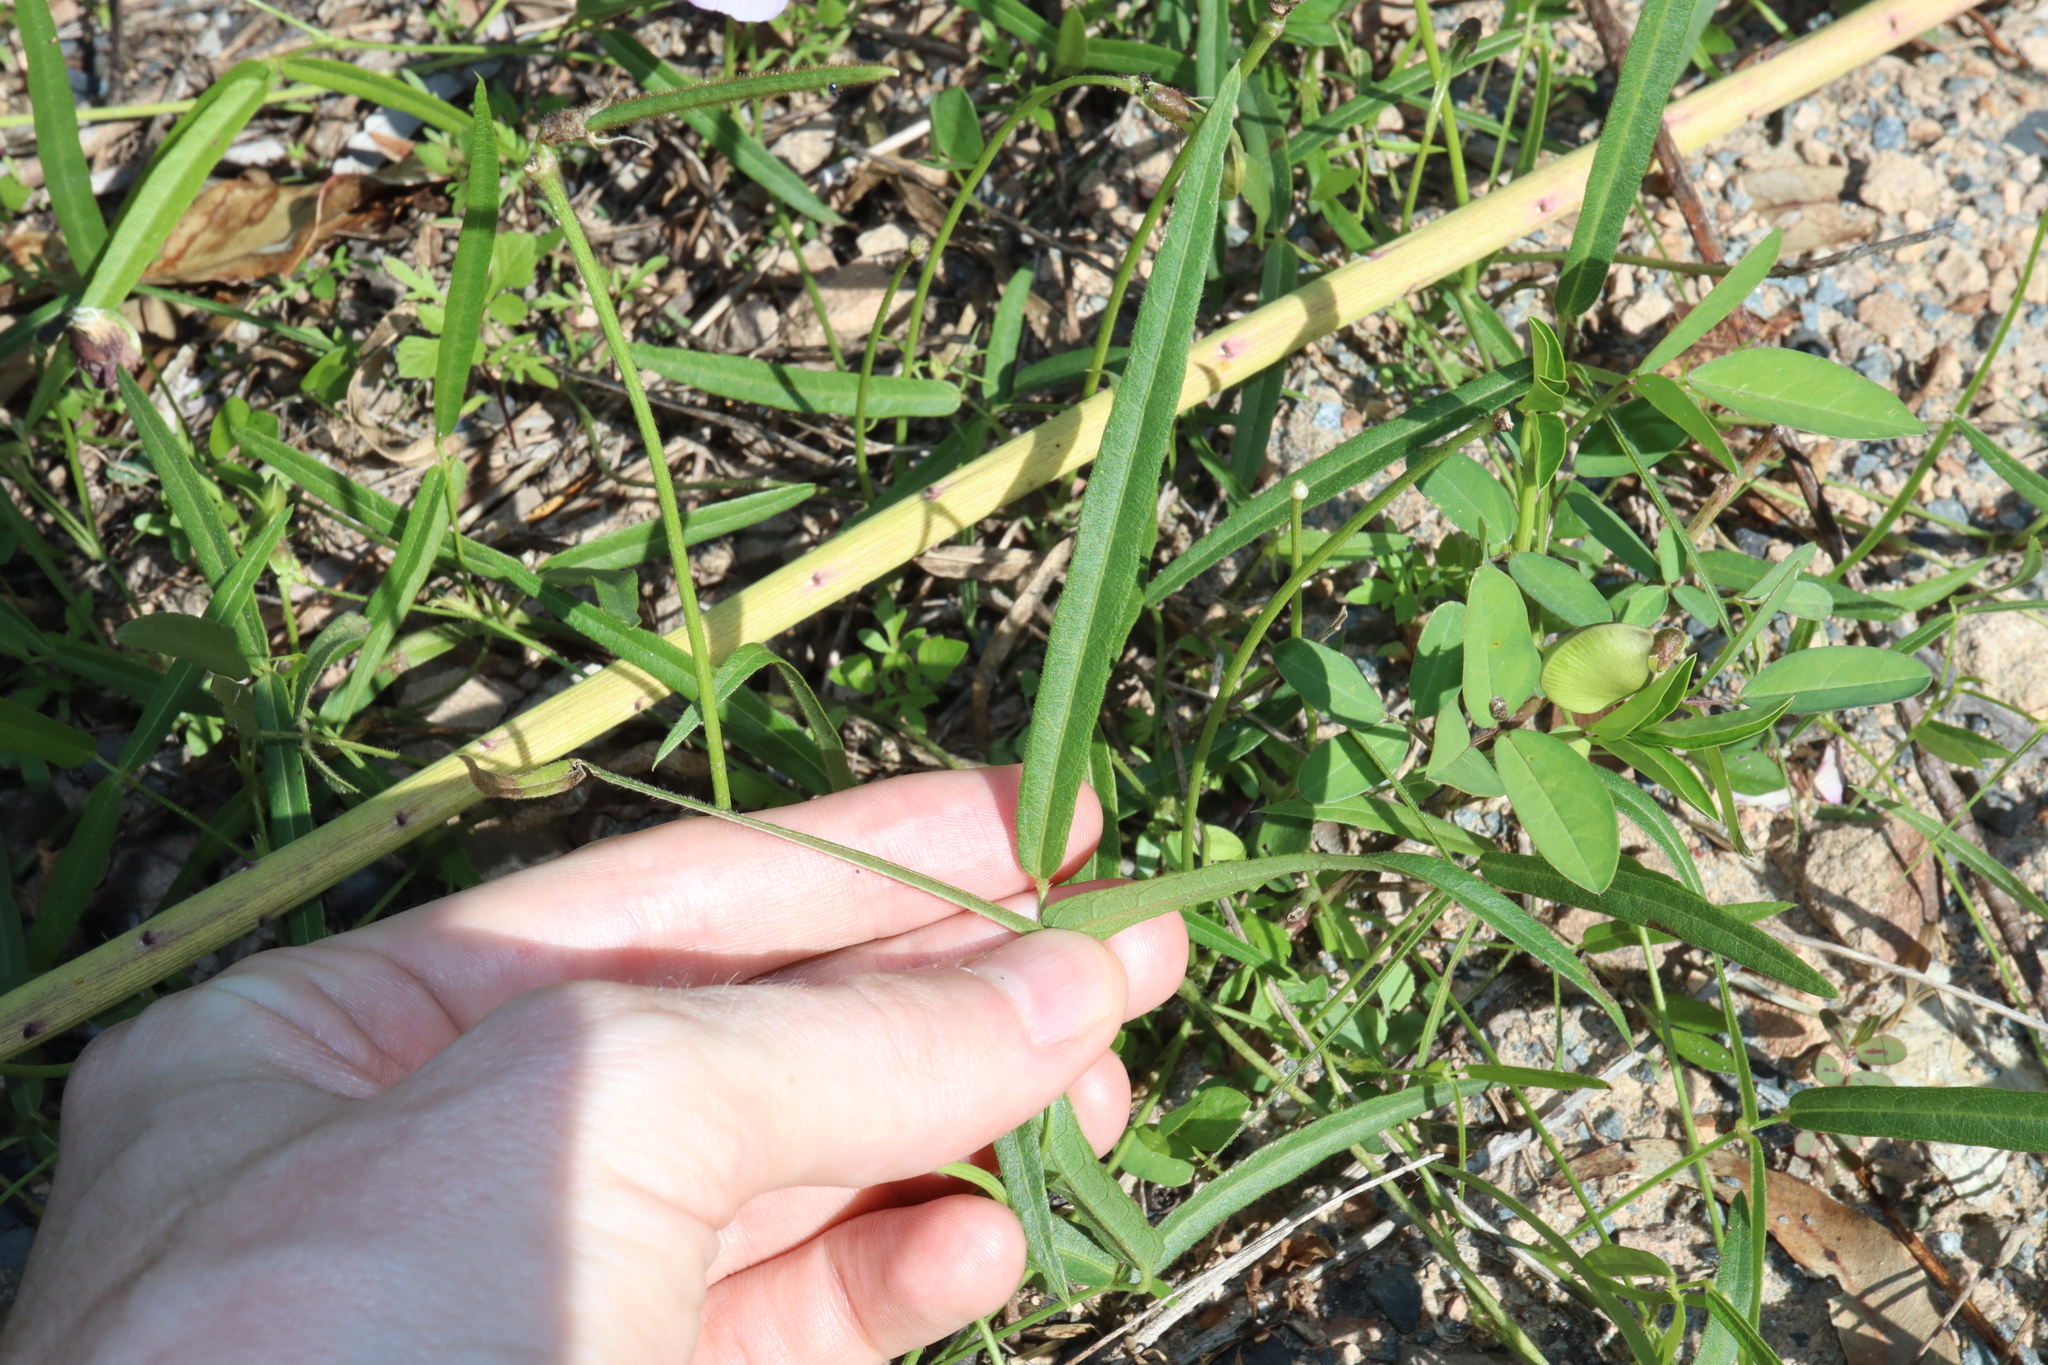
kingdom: Plantae
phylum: Tracheophyta
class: Magnoliopsida
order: Fabales
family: Fabaceae
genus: Vigna
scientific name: Vigna vexillata
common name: Zombi pea
